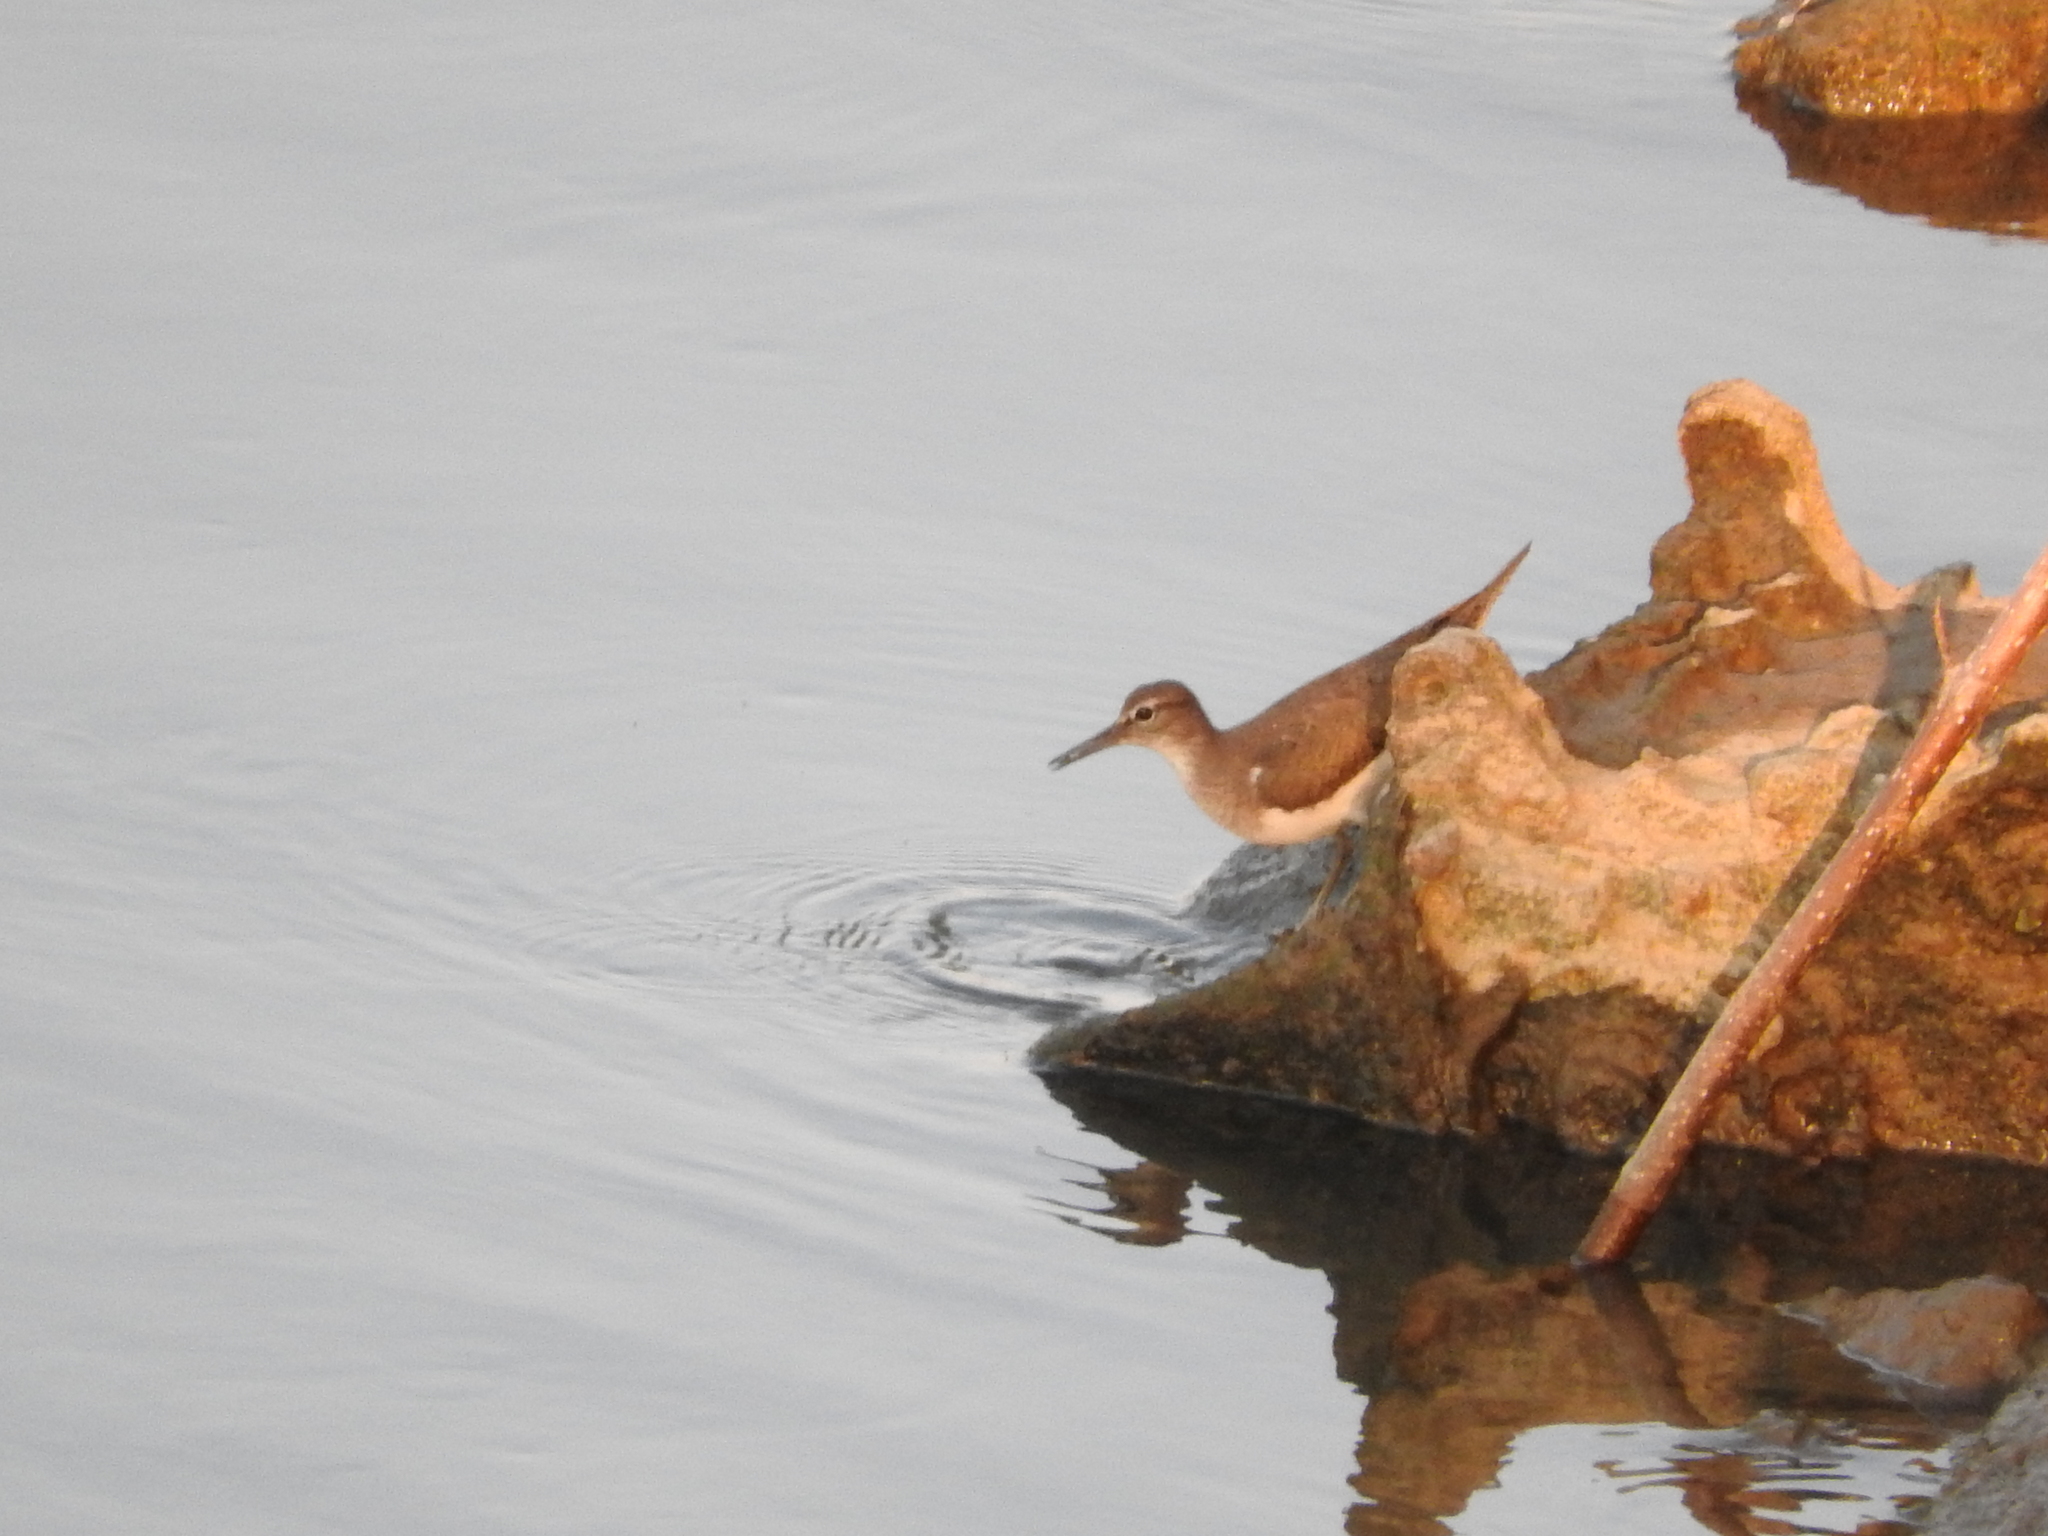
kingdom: Animalia
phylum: Chordata
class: Aves
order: Charadriiformes
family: Scolopacidae
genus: Actitis
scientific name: Actitis hypoleucos
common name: Common sandpiper
